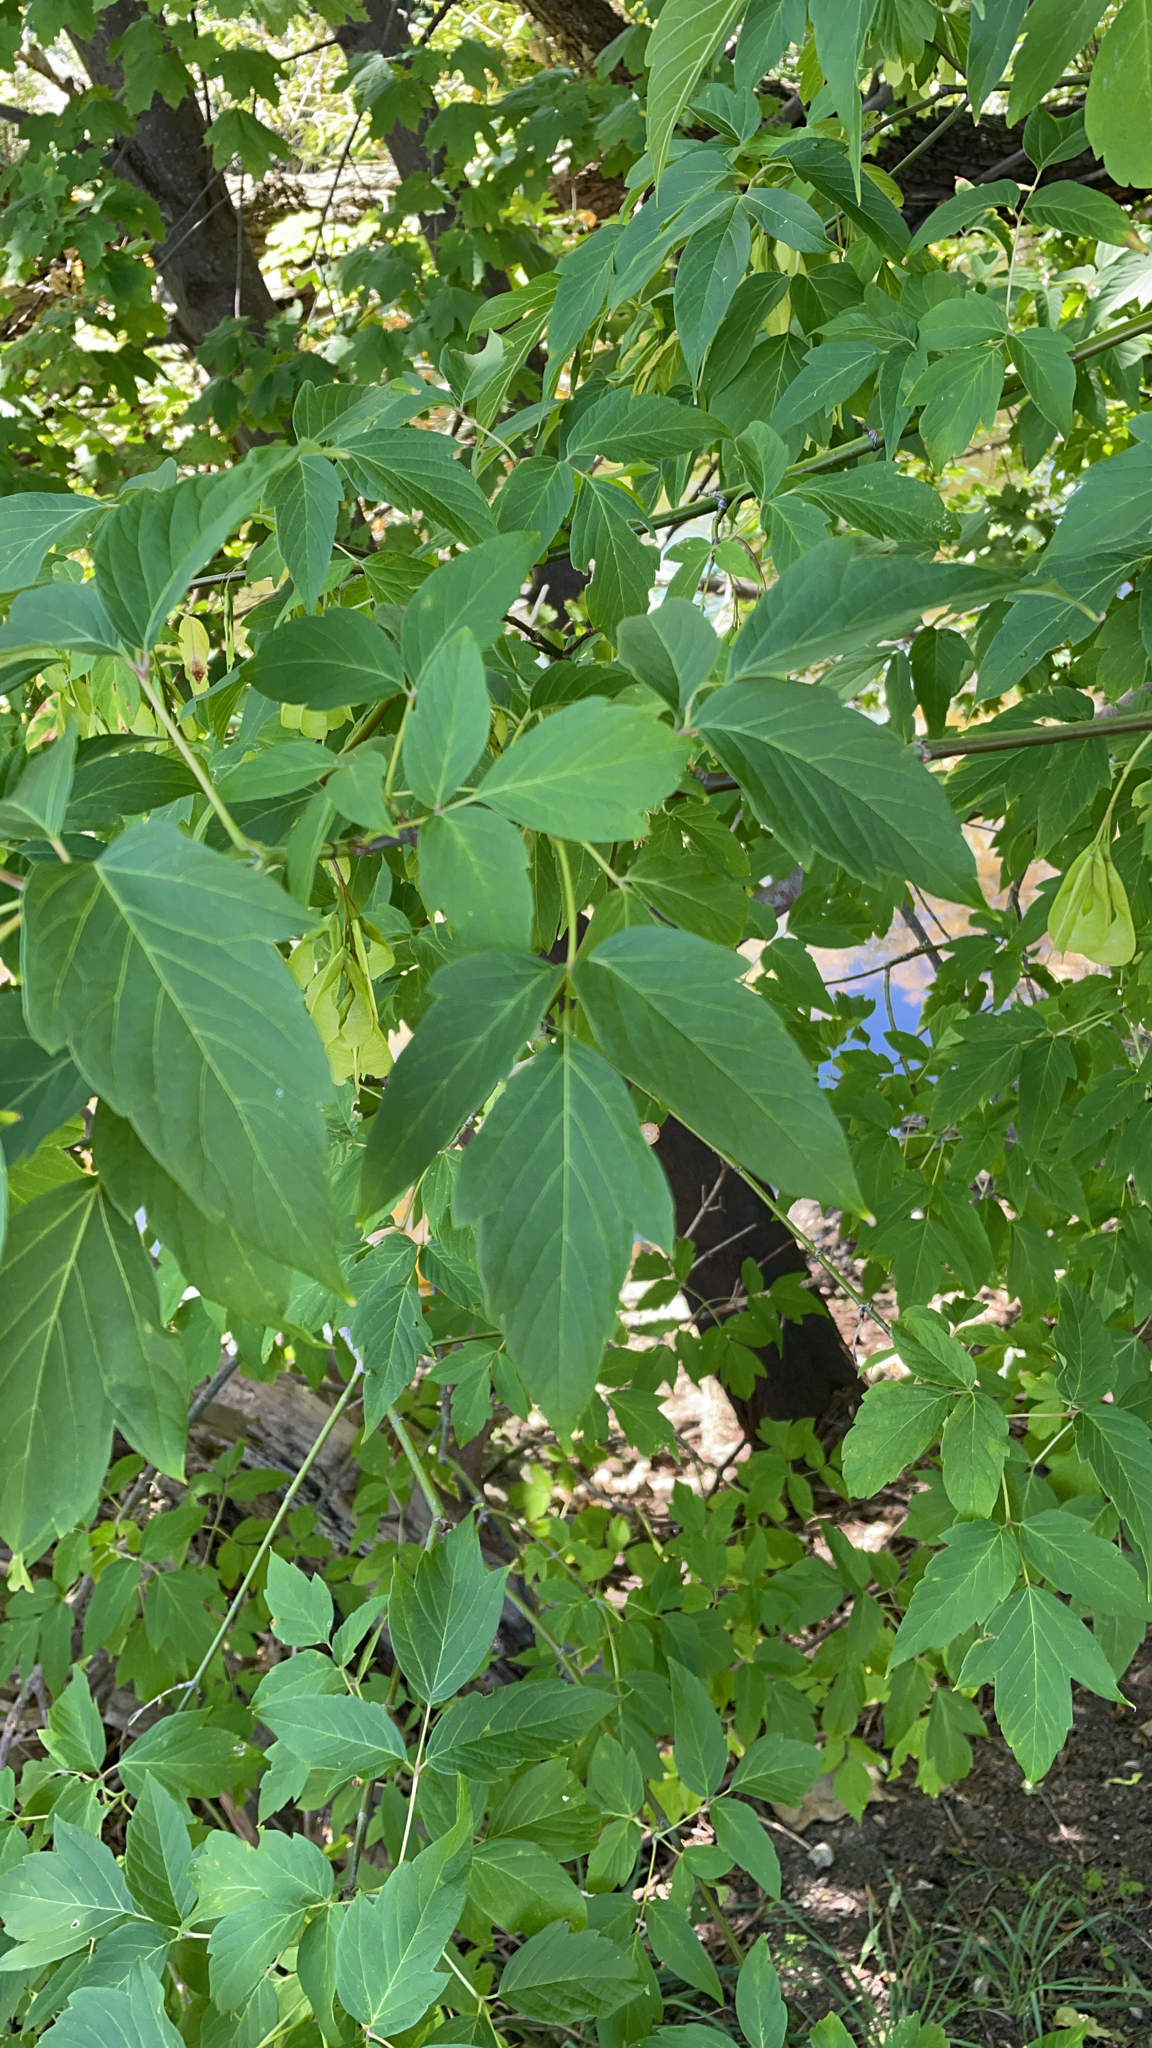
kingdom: Plantae
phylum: Tracheophyta
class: Magnoliopsida
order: Sapindales
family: Sapindaceae
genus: Acer
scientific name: Acer negundo
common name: Ashleaf maple
